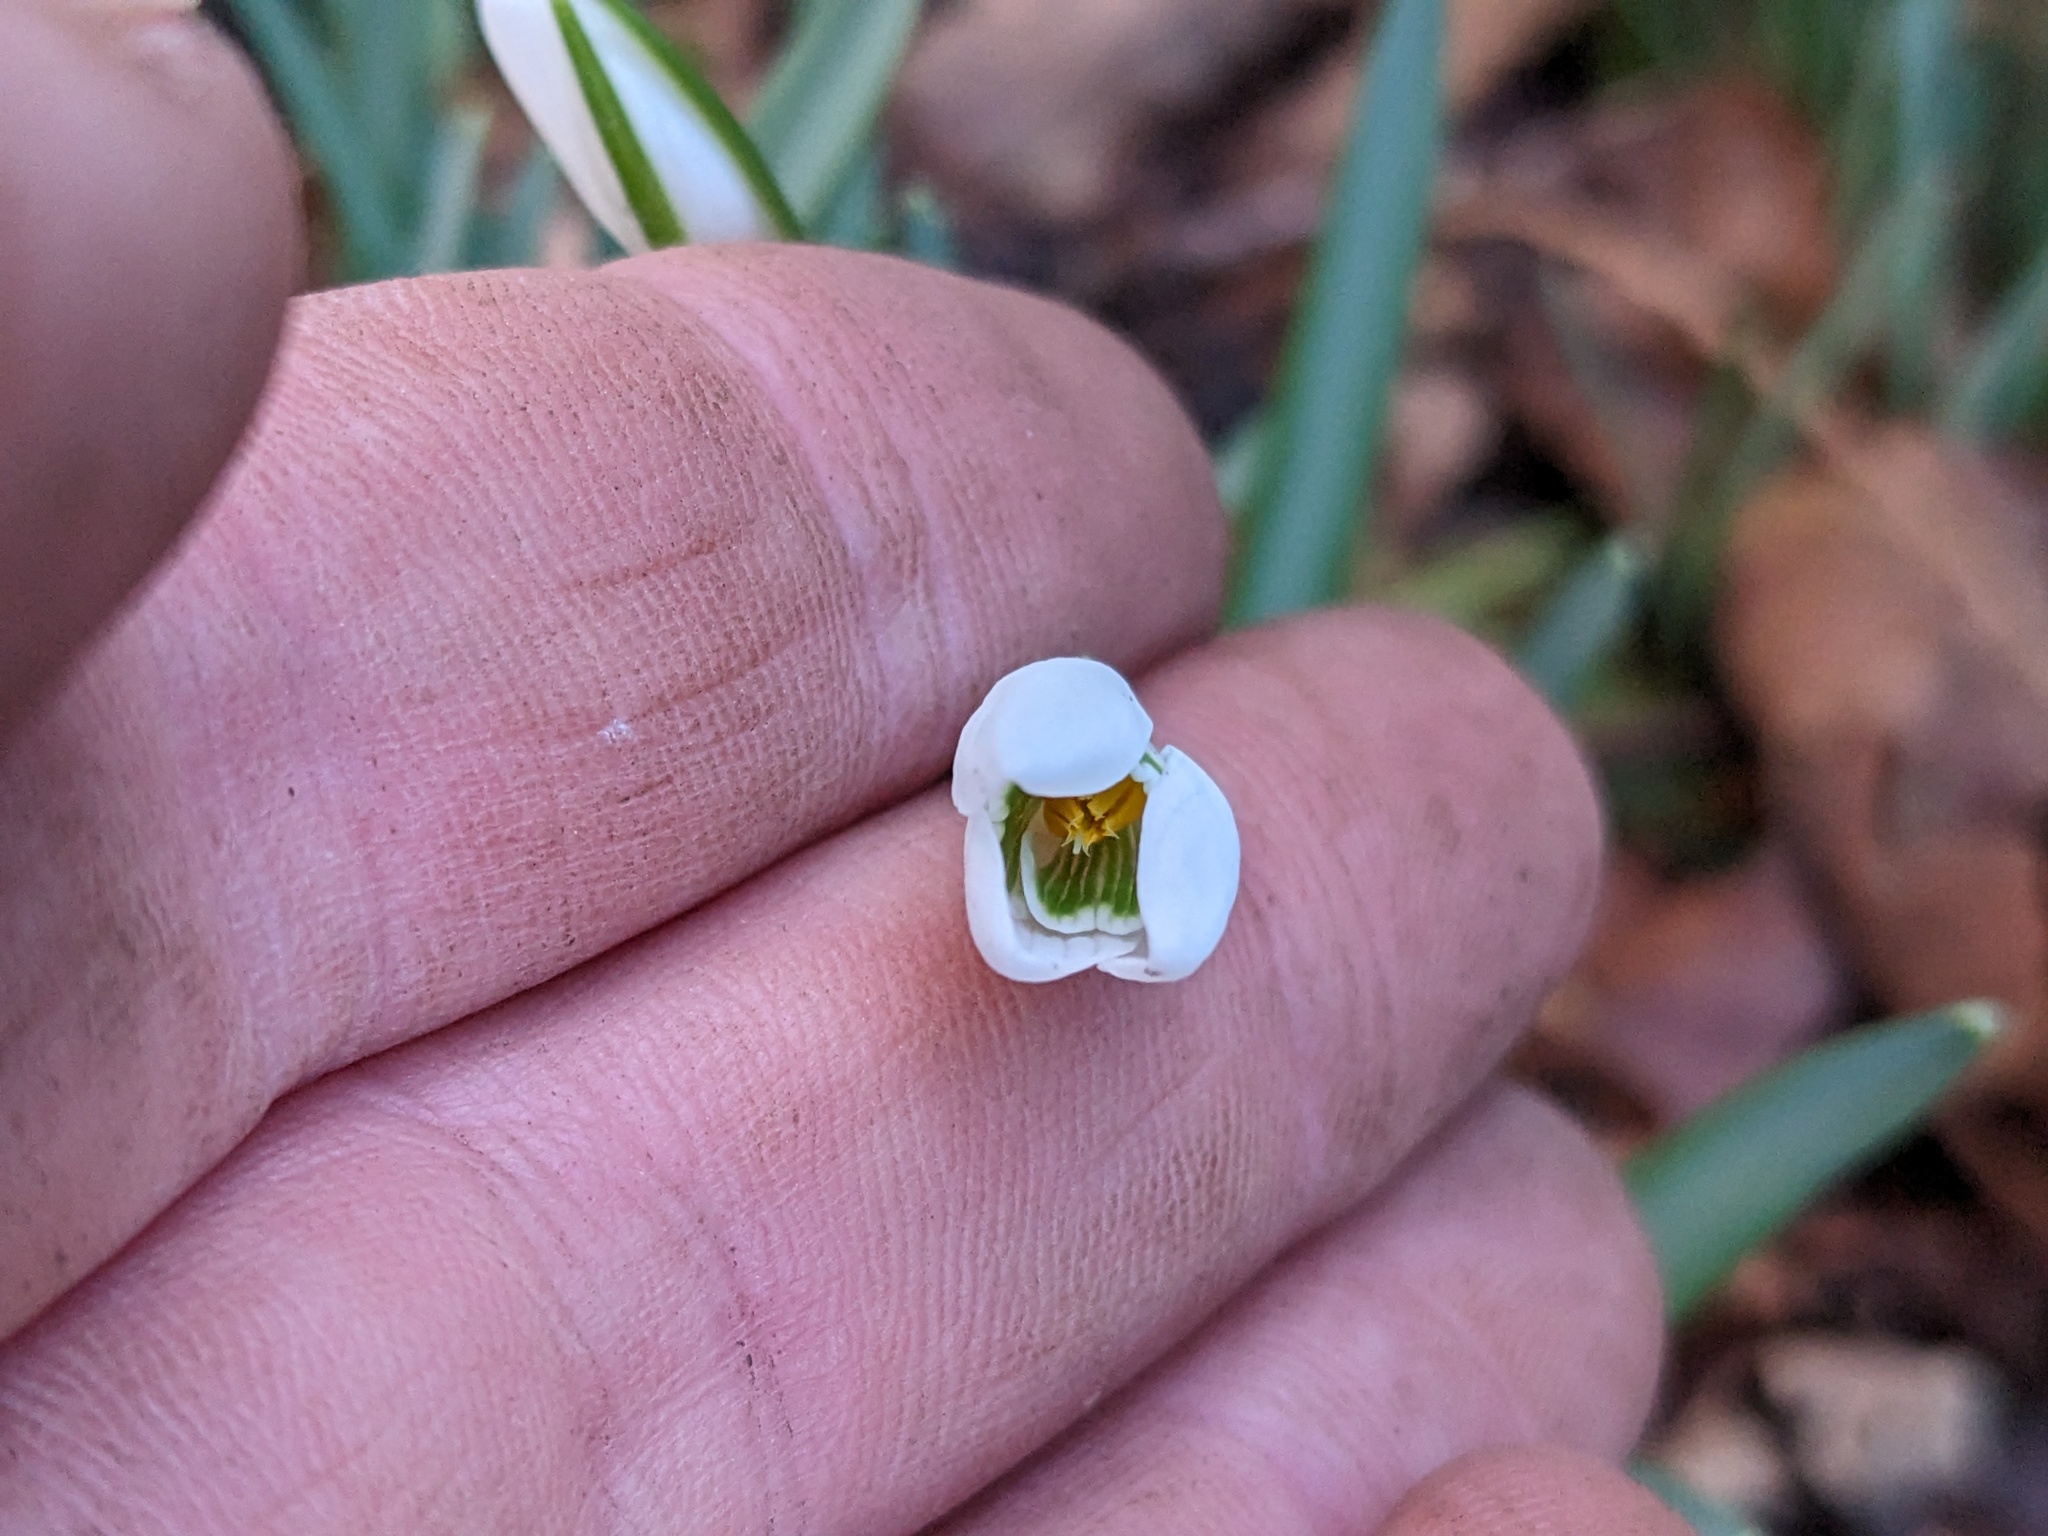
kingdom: Plantae
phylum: Tracheophyta
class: Liliopsida
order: Asparagales
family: Amaryllidaceae
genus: Galanthus
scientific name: Galanthus nivalis
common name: Snowdrop
